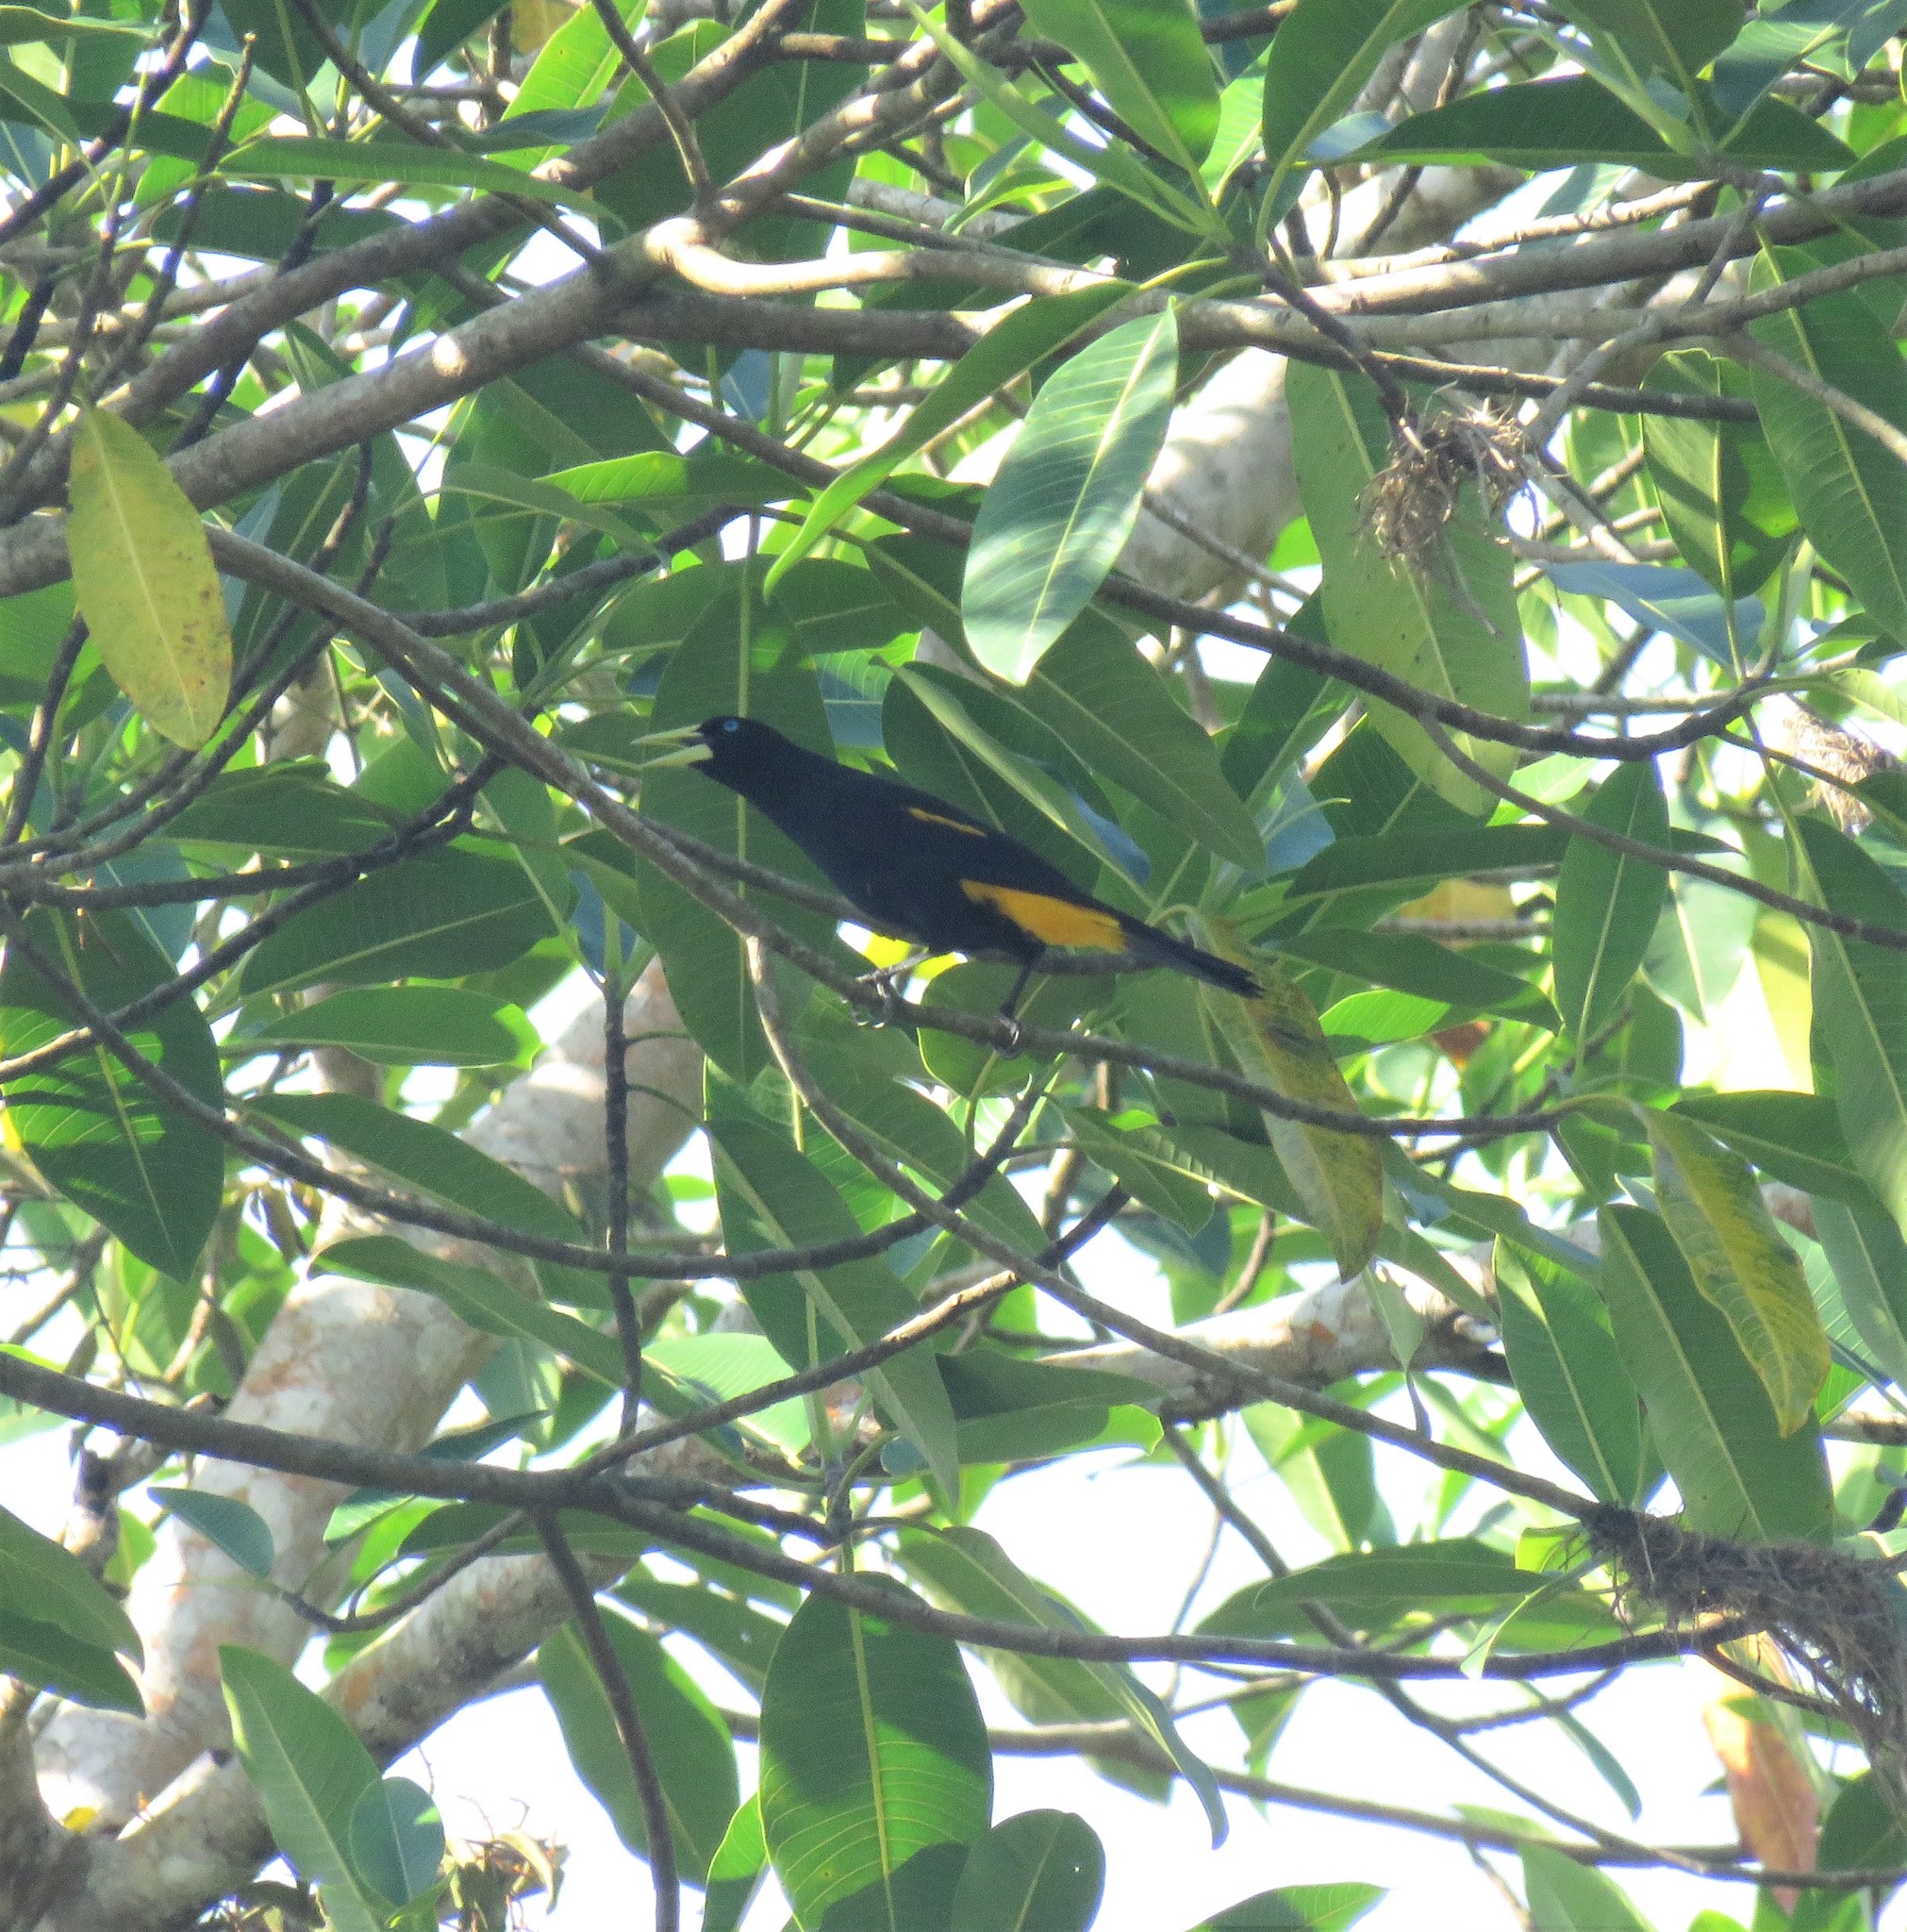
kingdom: Animalia
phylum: Chordata
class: Aves
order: Passeriformes
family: Icteridae
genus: Cacicus
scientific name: Cacicus cela
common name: Yellow-rumped cacique
